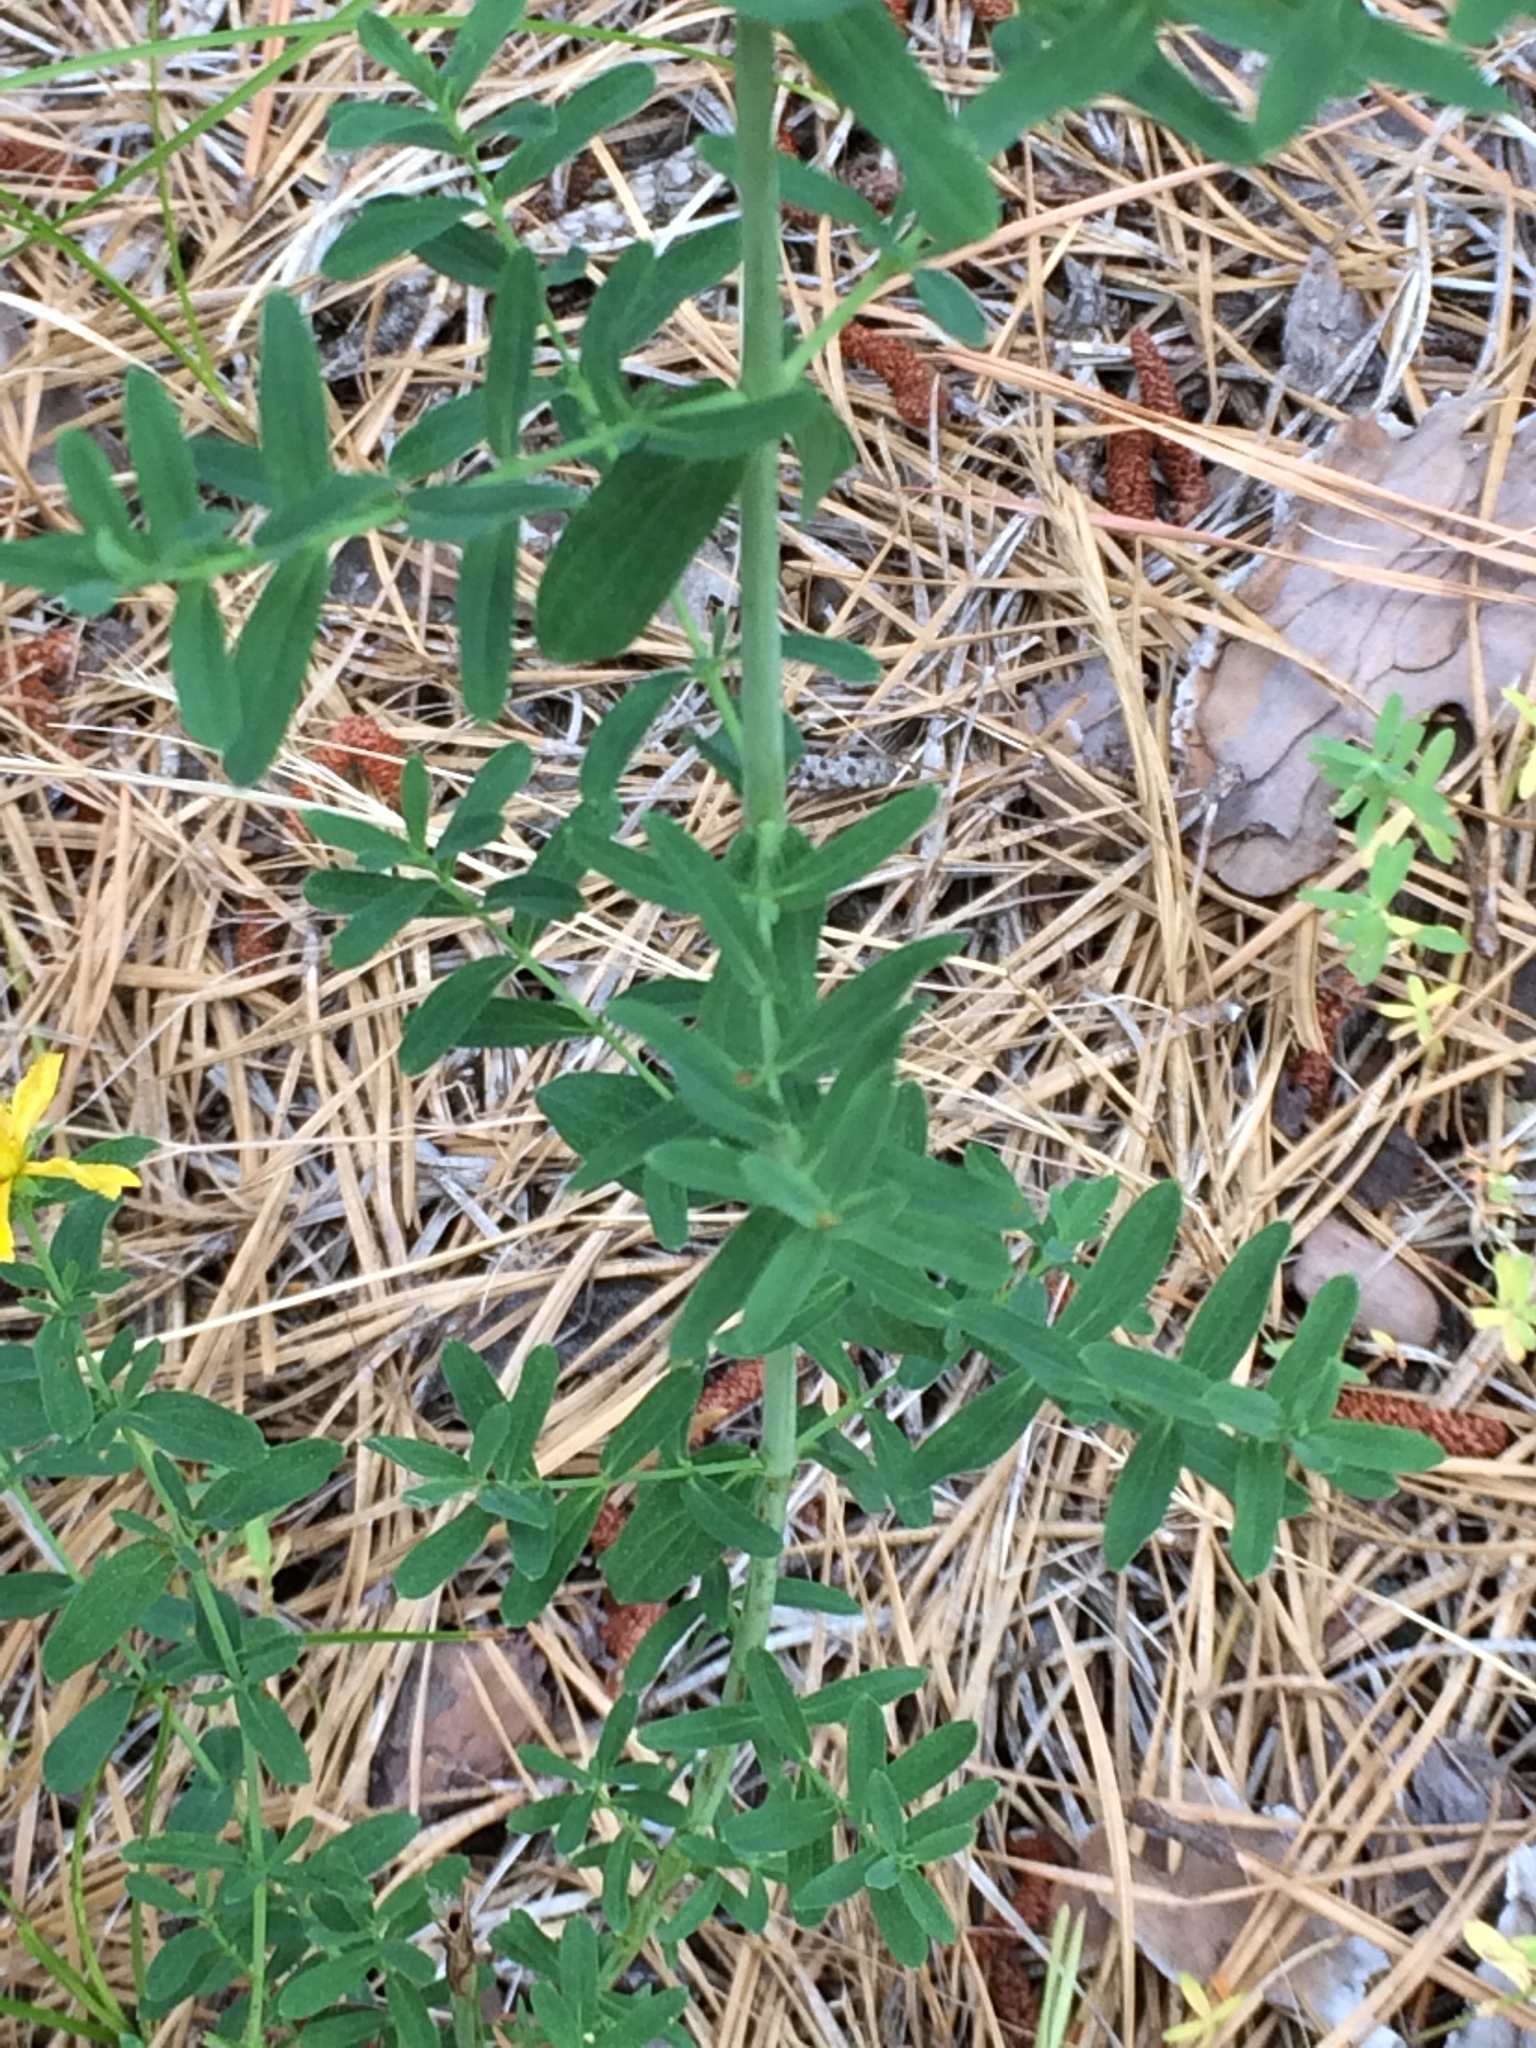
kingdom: Plantae
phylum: Tracheophyta
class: Magnoliopsida
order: Malpighiales
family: Hypericaceae
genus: Hypericum
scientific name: Hypericum perforatum
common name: Common st. johnswort
